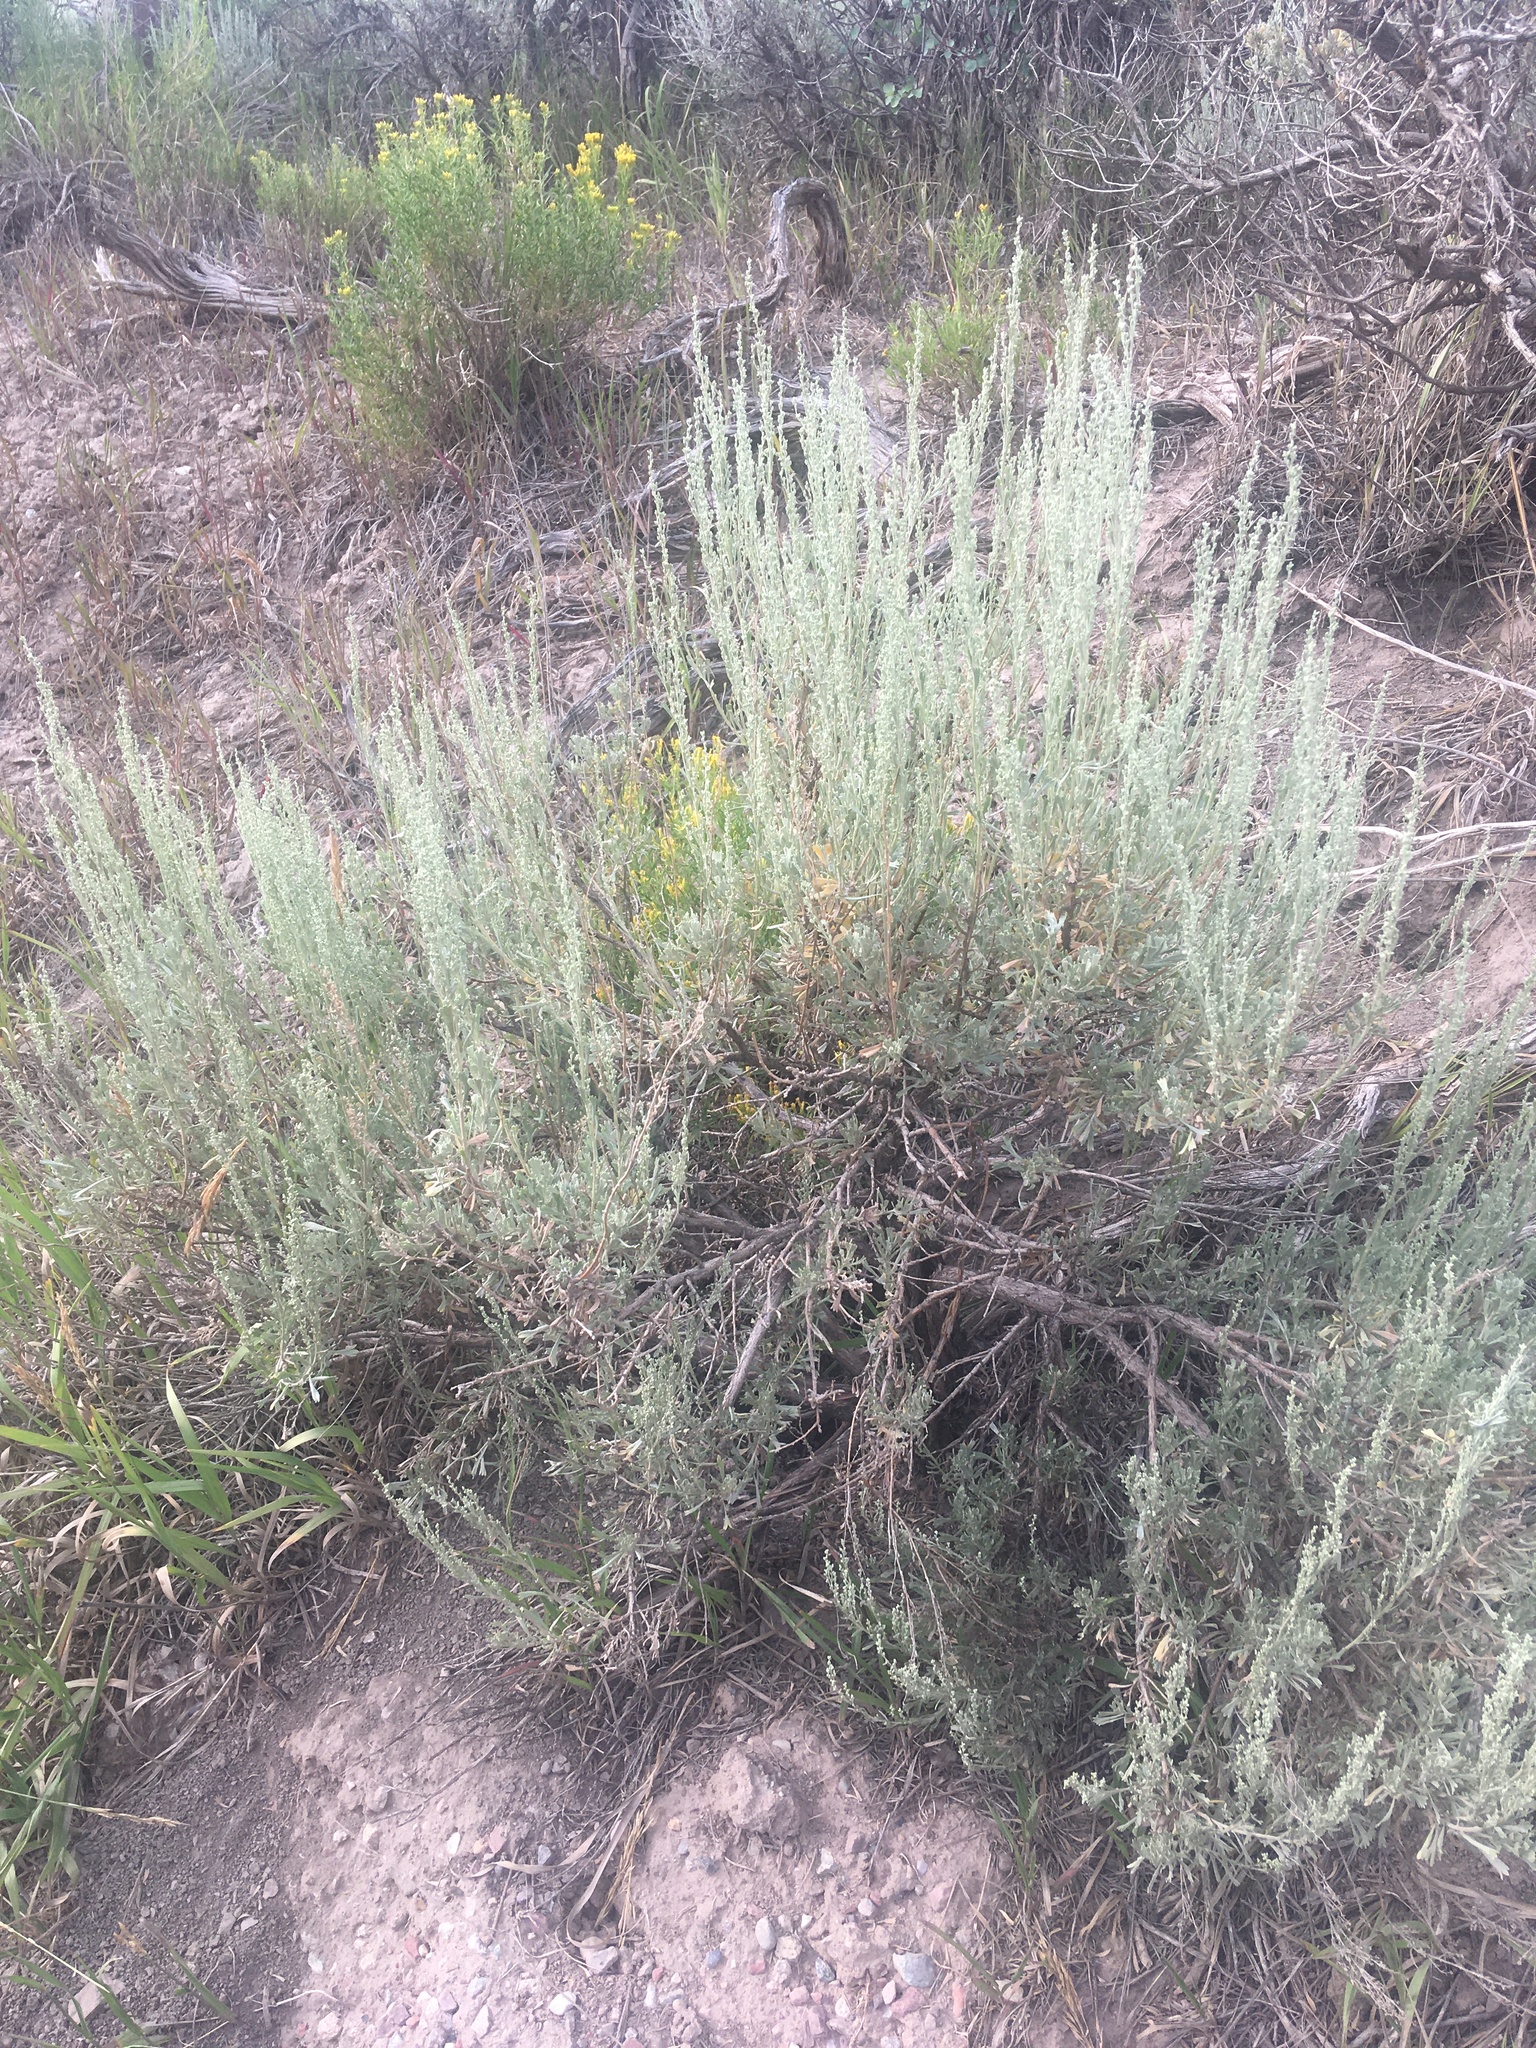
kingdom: Plantae
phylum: Tracheophyta
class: Magnoliopsida
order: Asterales
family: Asteraceae
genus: Artemisia
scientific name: Artemisia tridentata
